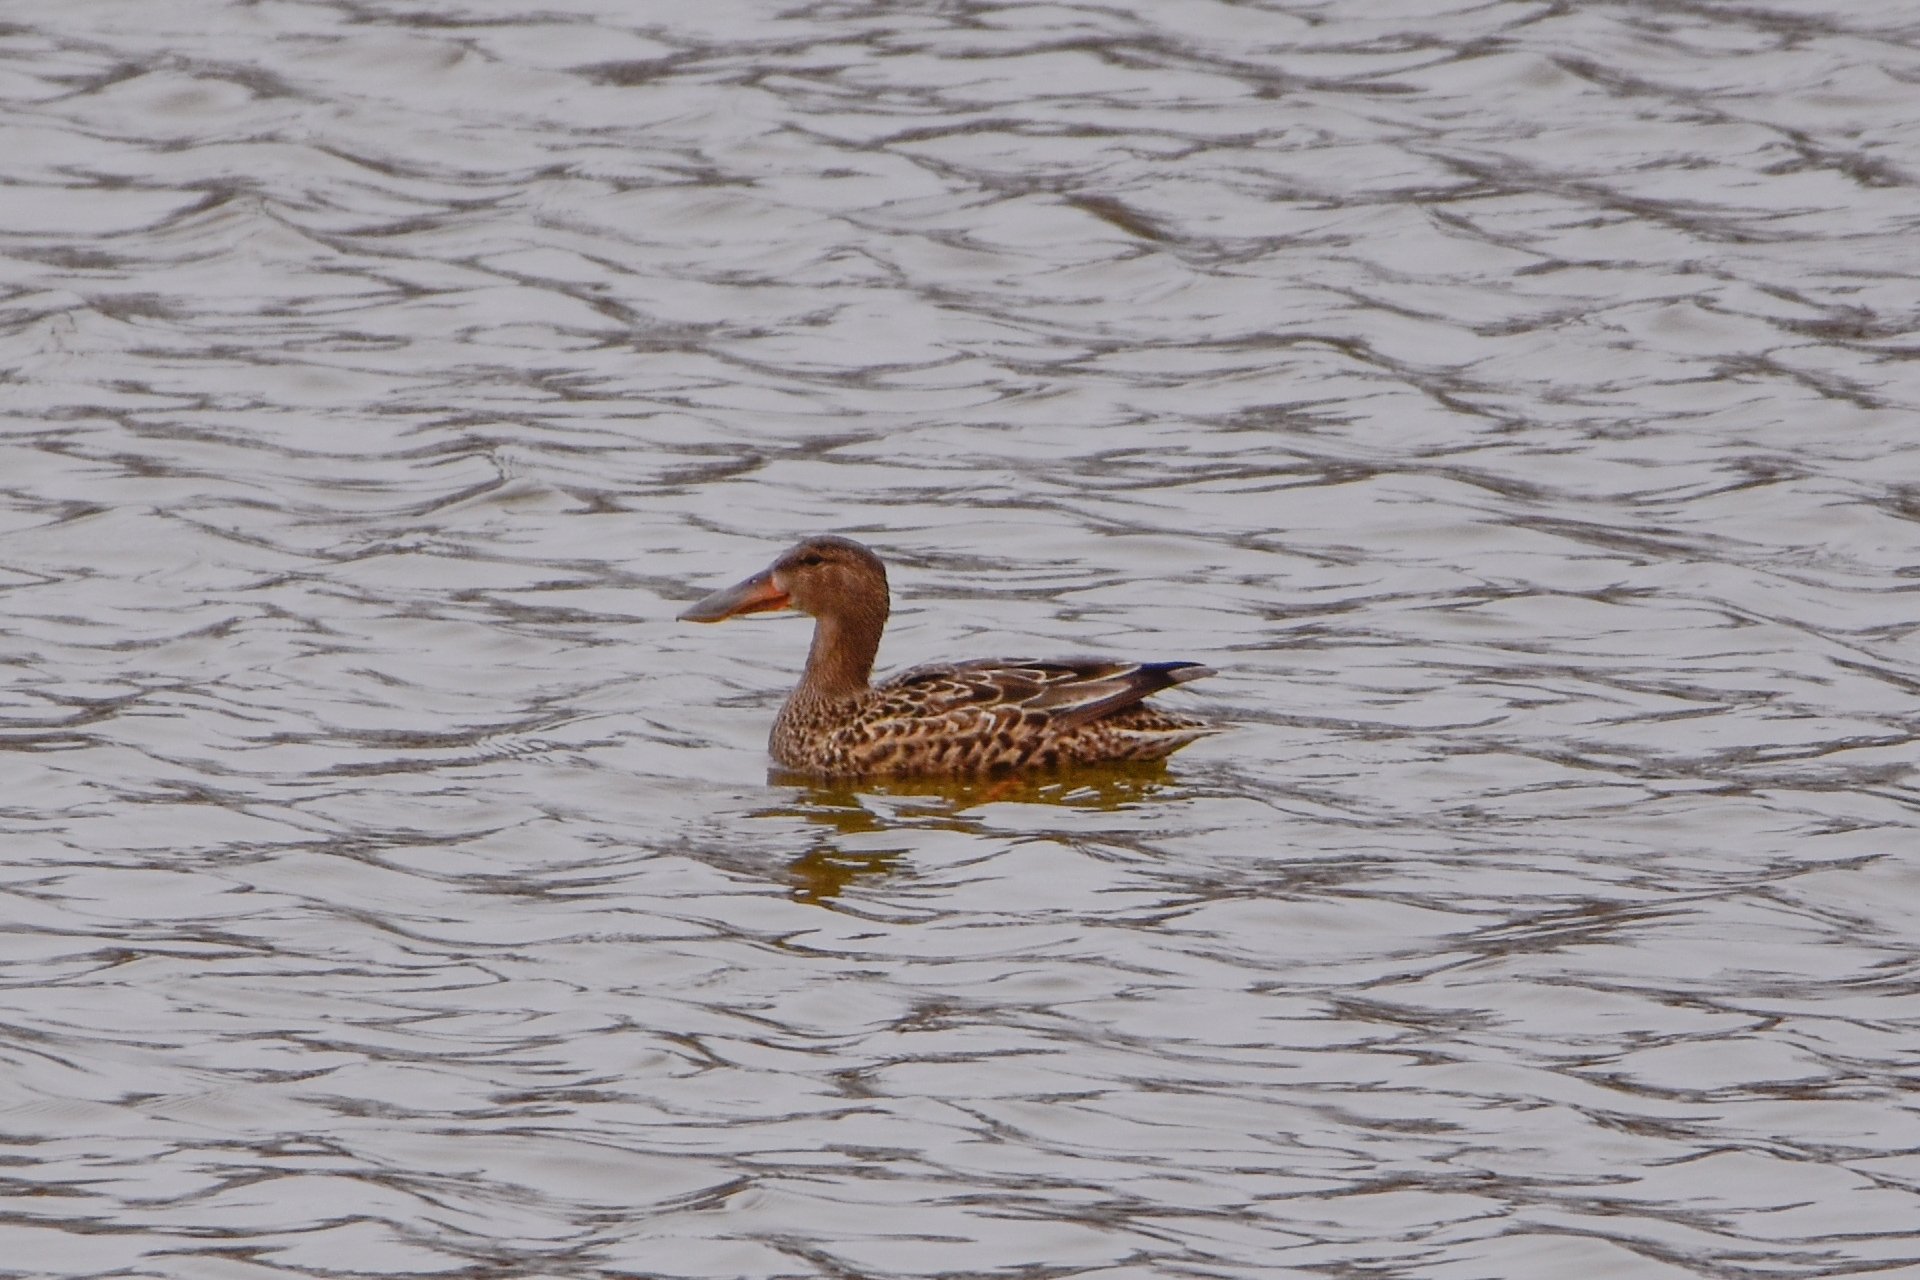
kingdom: Animalia
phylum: Chordata
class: Aves
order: Anseriformes
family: Anatidae
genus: Spatula
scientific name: Spatula clypeata
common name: Northern shoveler
